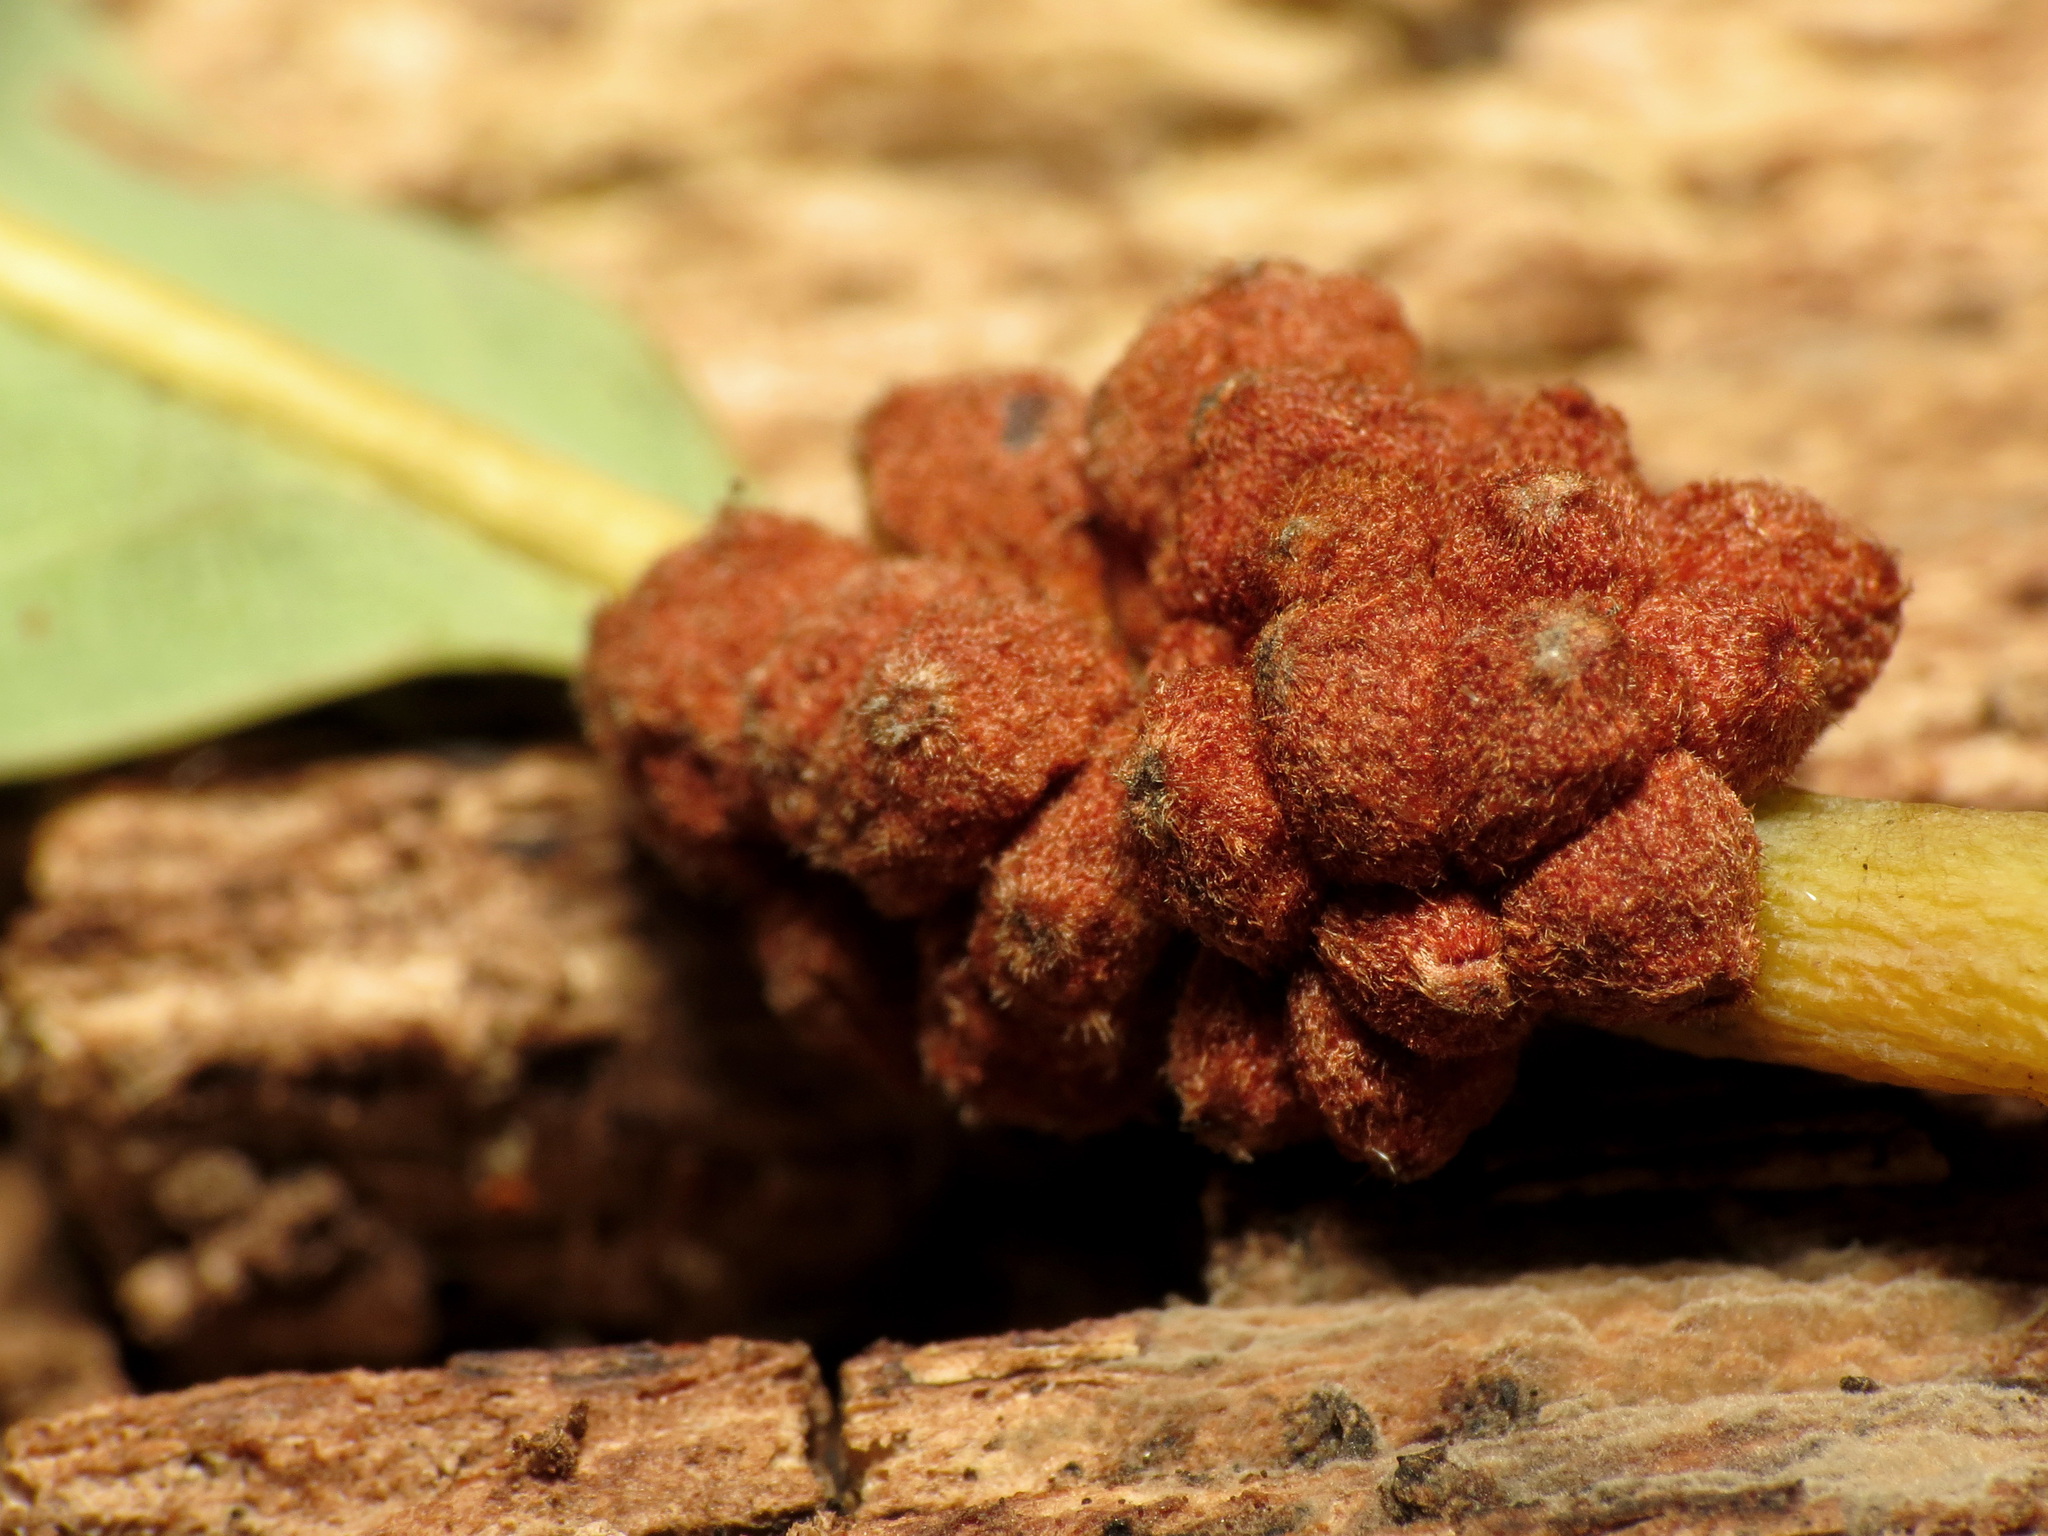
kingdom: Animalia
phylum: Arthropoda
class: Insecta
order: Hymenoptera
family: Cynipidae
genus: Andricus
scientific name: Andricus
